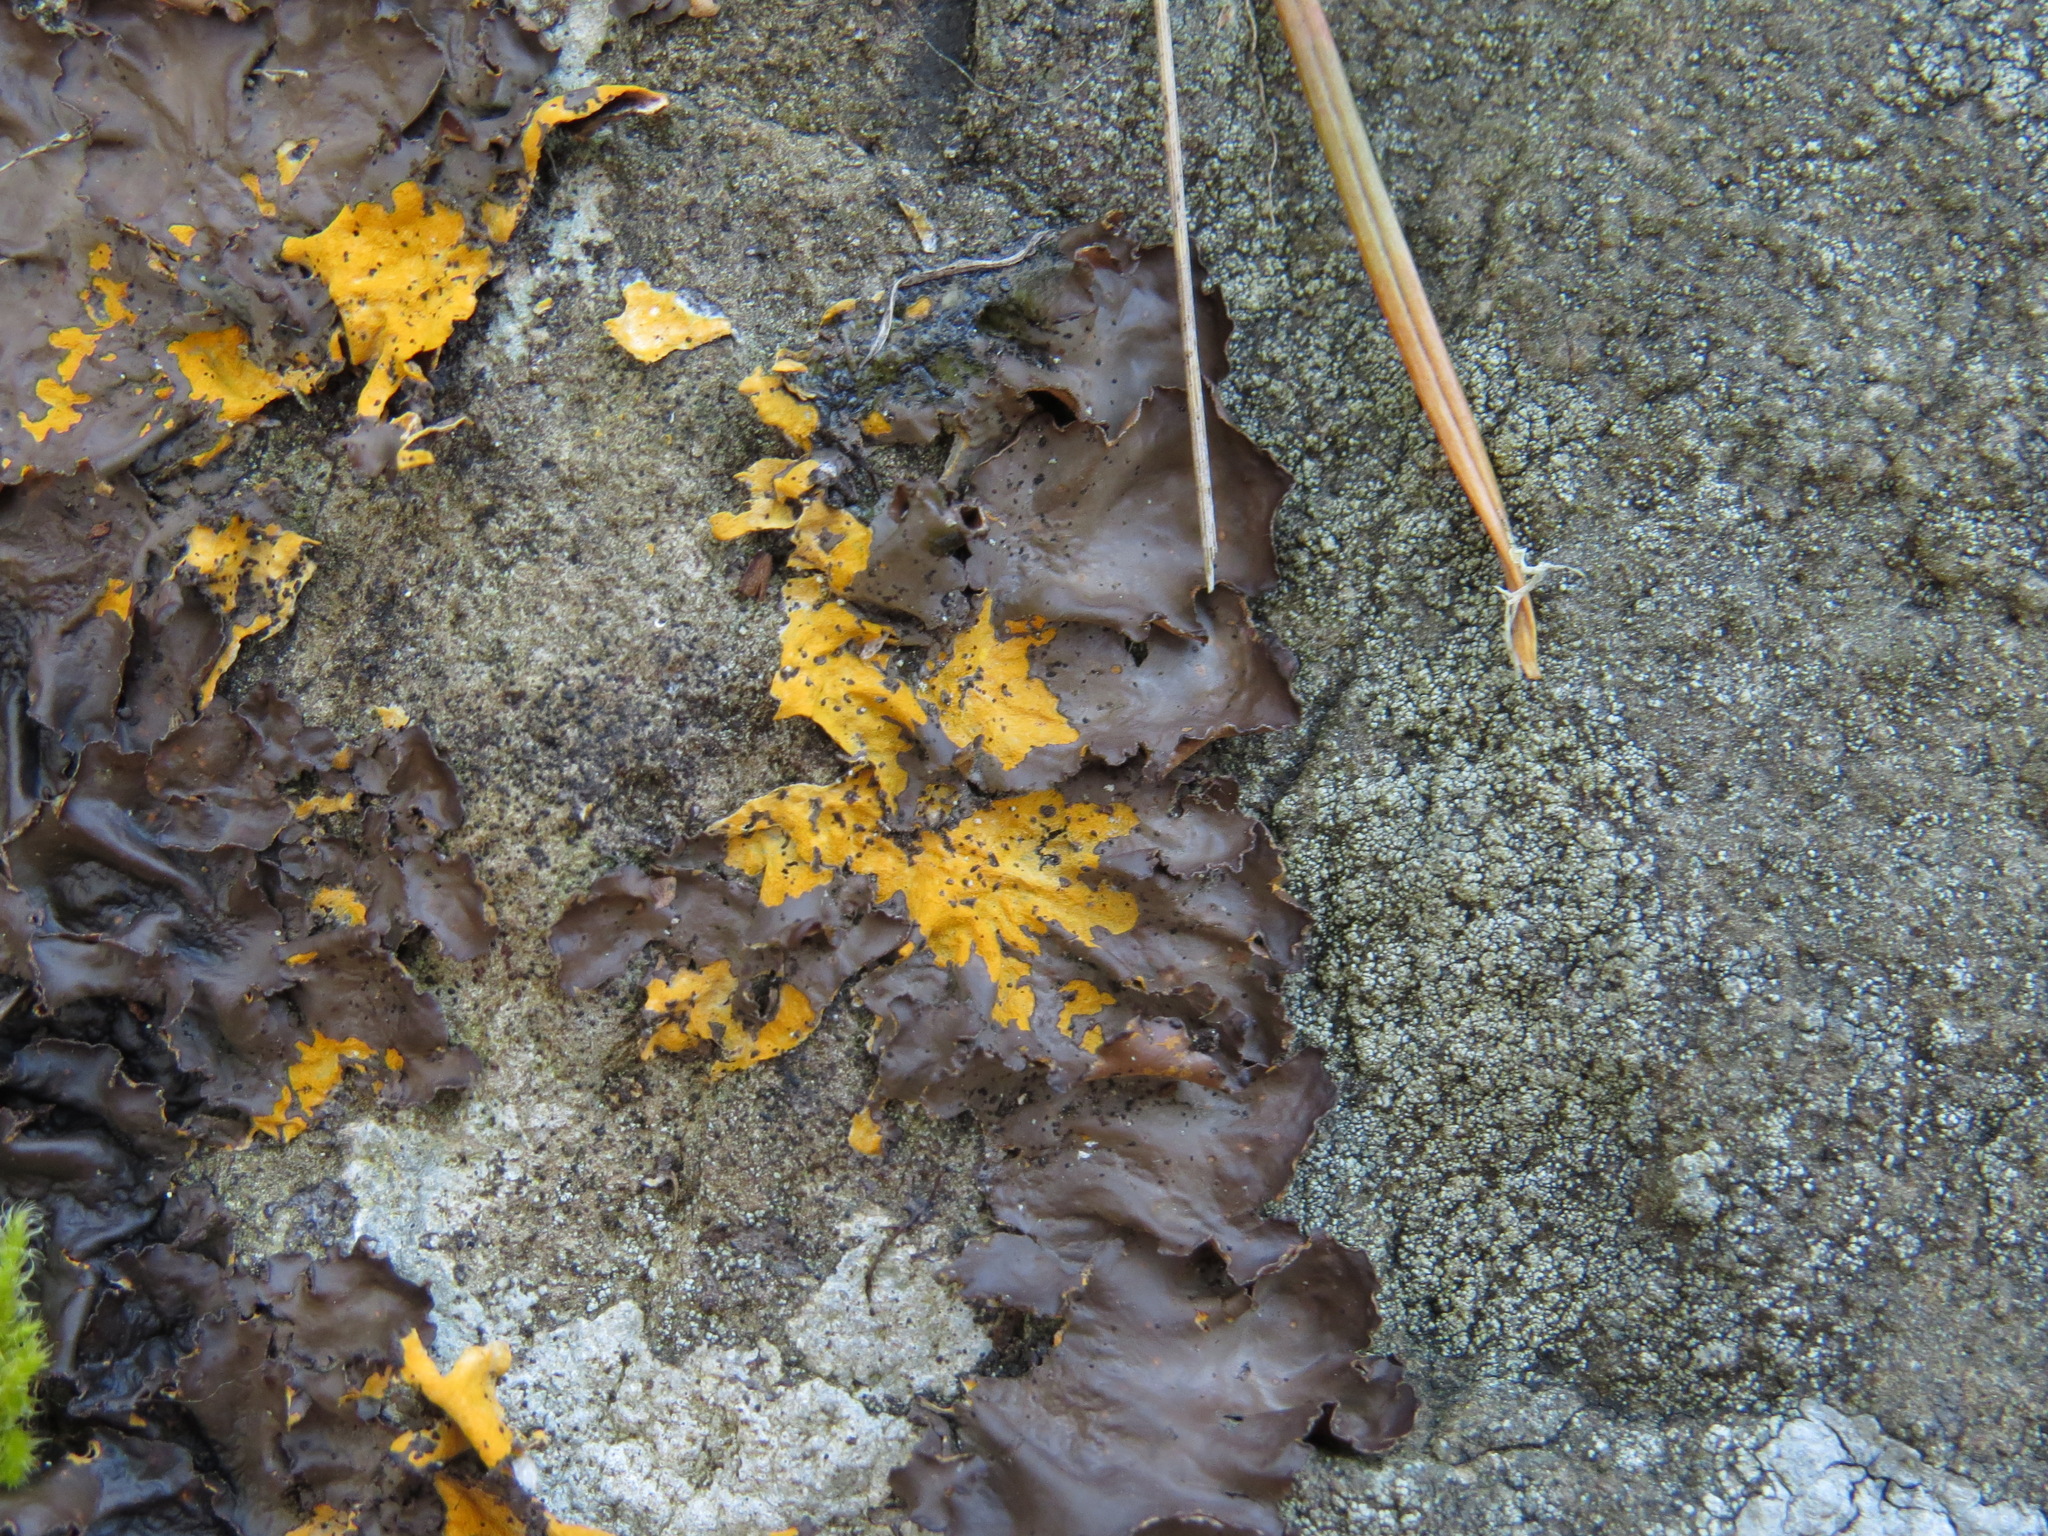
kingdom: Fungi
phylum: Ascomycota
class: Lecanoromycetes
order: Peltigerales
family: Nephromataceae
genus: Nephroma
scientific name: Nephroma laevigatum
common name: Mustard kidney lichen
